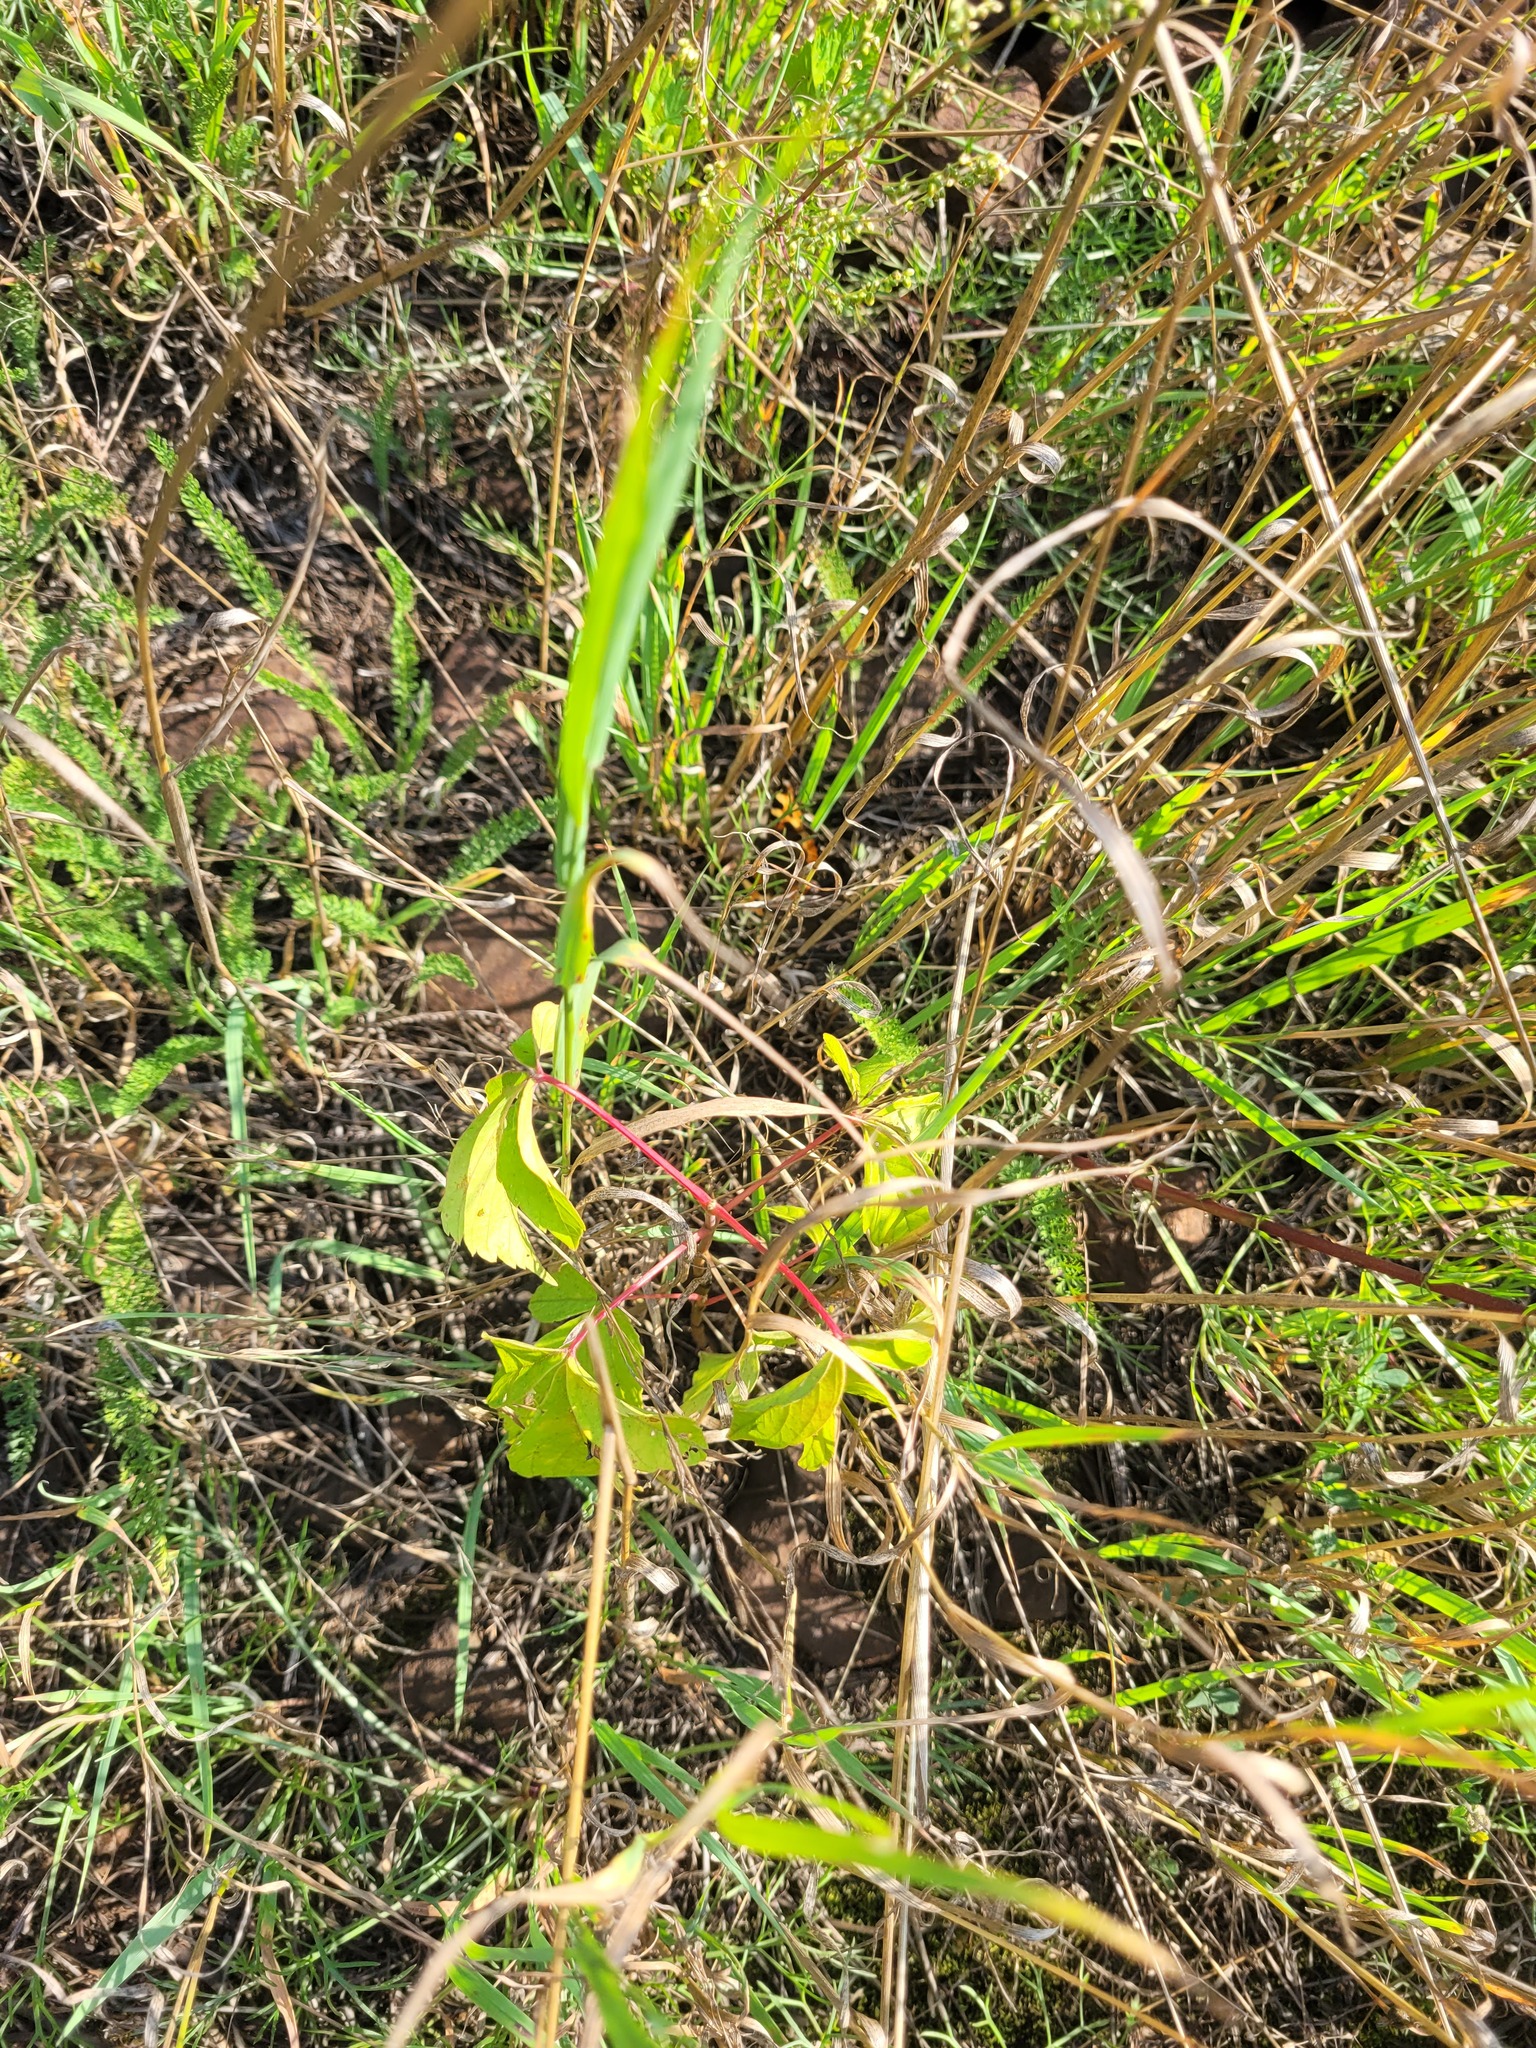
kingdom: Plantae
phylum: Tracheophyta
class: Magnoliopsida
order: Sapindales
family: Sapindaceae
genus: Acer
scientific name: Acer negundo
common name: Ashleaf maple
